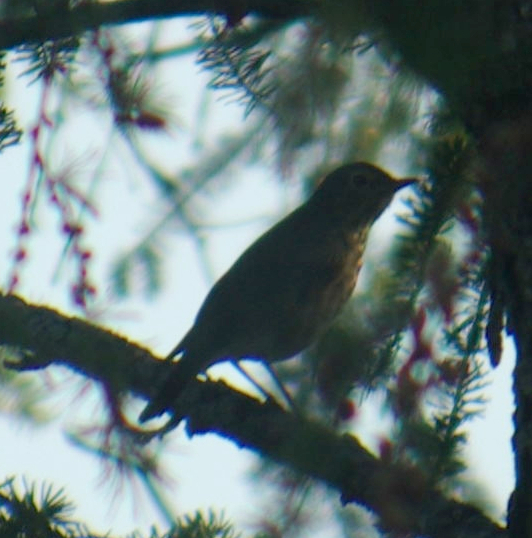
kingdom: Animalia
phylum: Chordata
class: Aves
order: Passeriformes
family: Turdidae
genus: Catharus
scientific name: Catharus ustulatus
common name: Swainson's thrush
